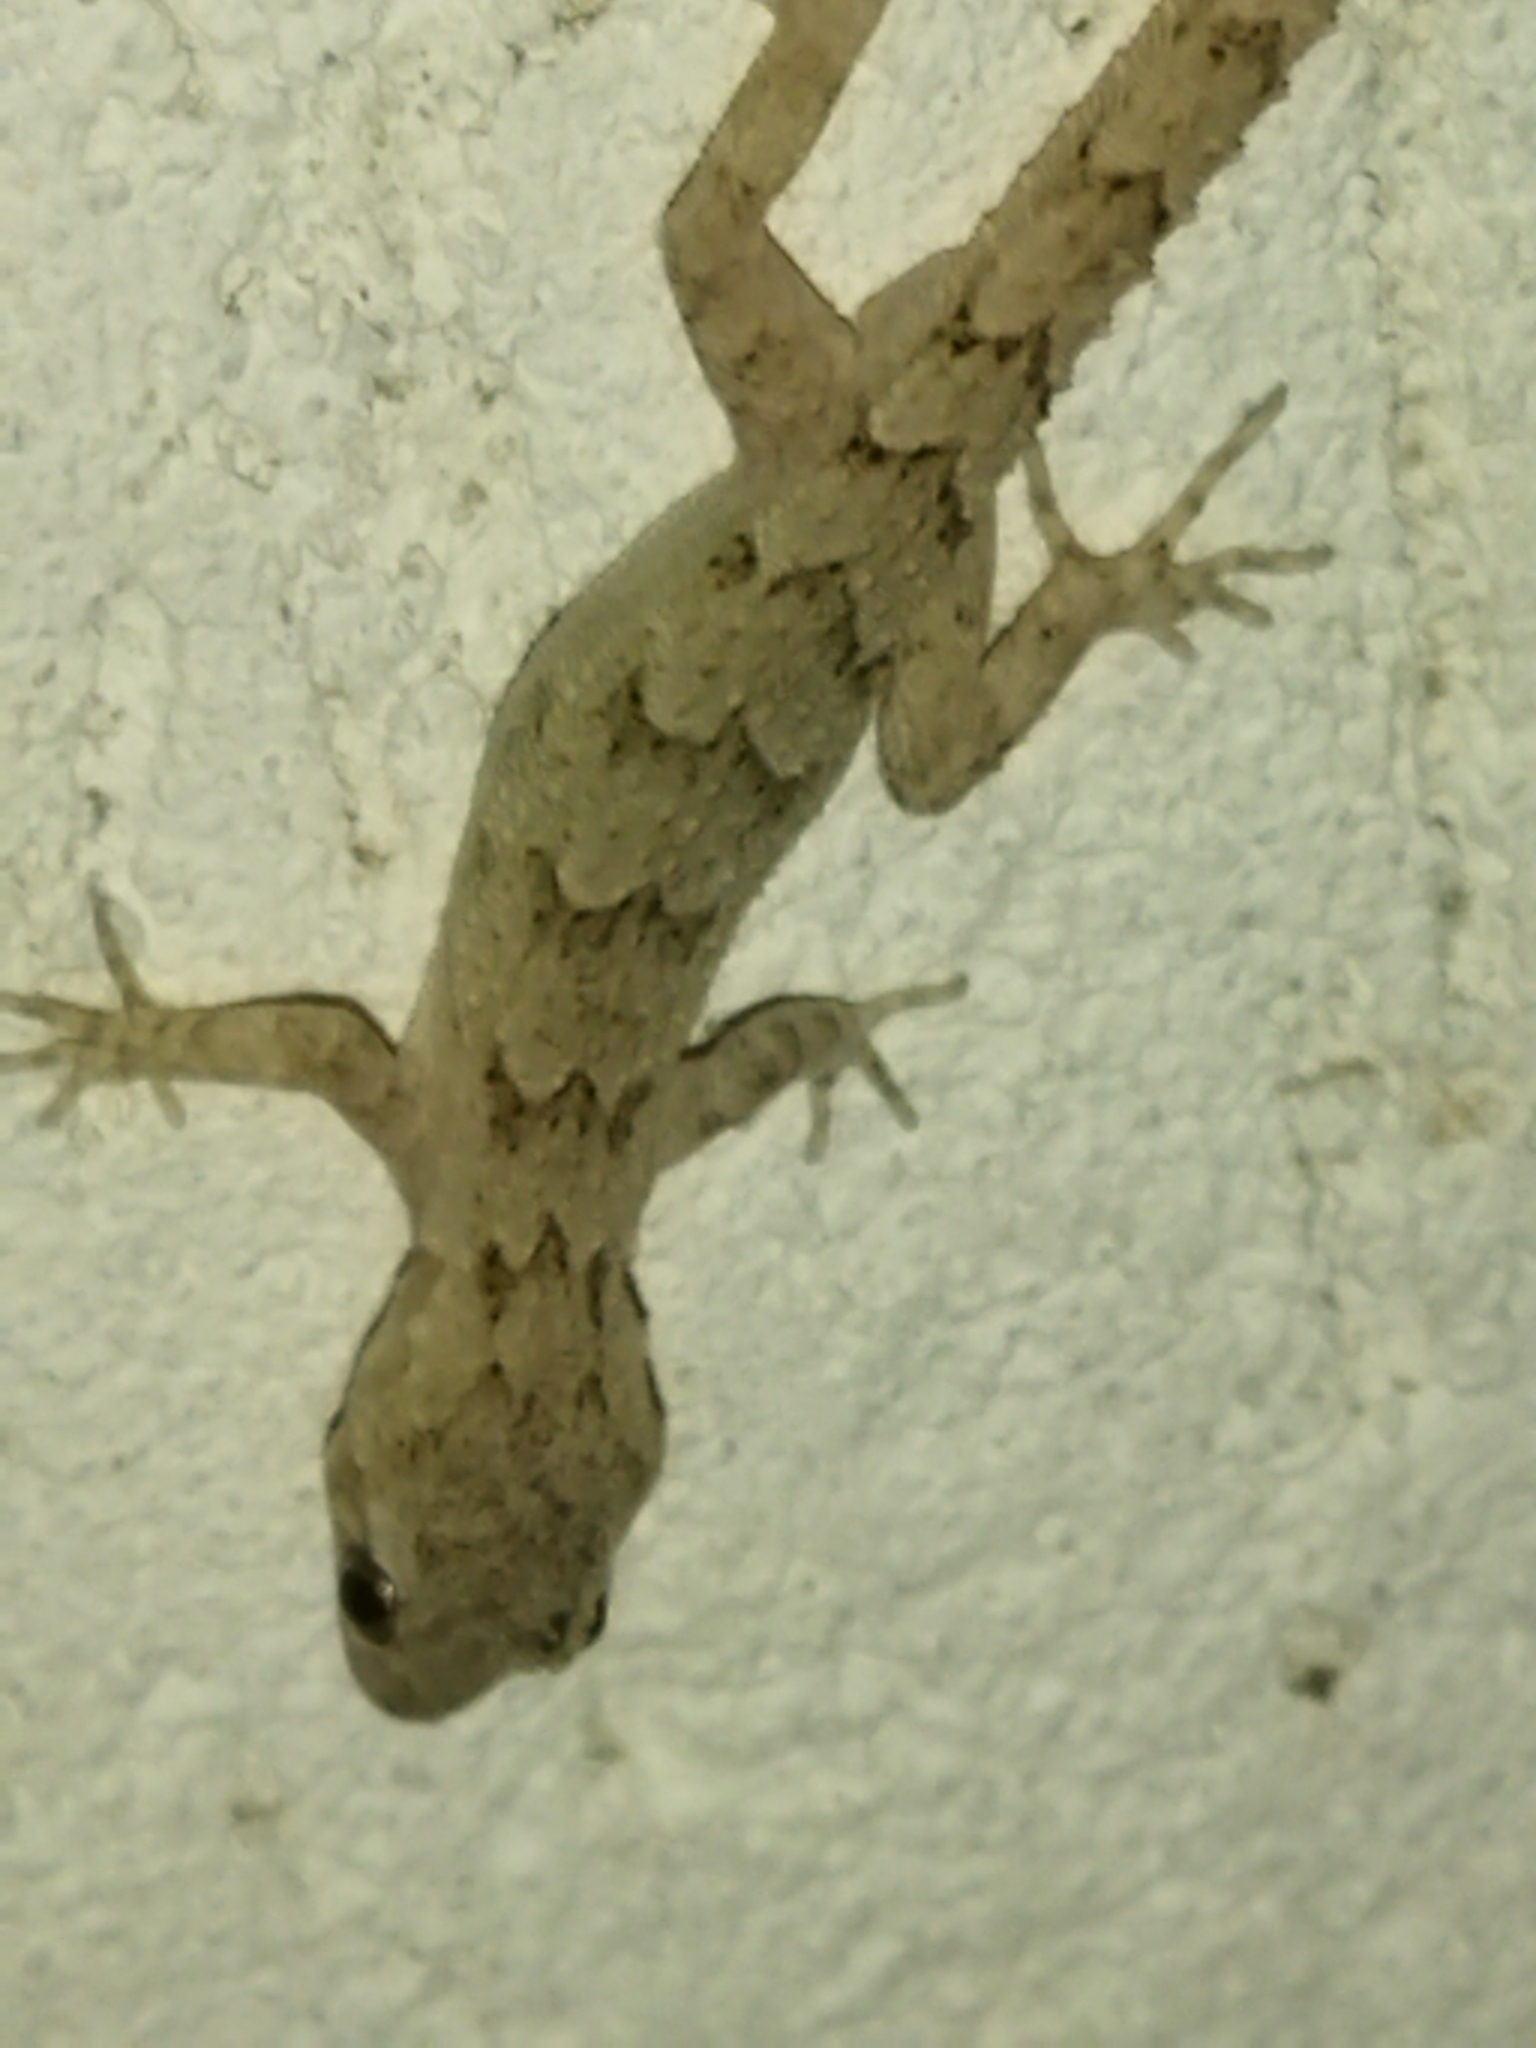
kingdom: Animalia
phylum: Chordata
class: Squamata
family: Gekkonidae
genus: Mediodactylus
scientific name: Mediodactylus kotschyi
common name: Kotschy's gecko
